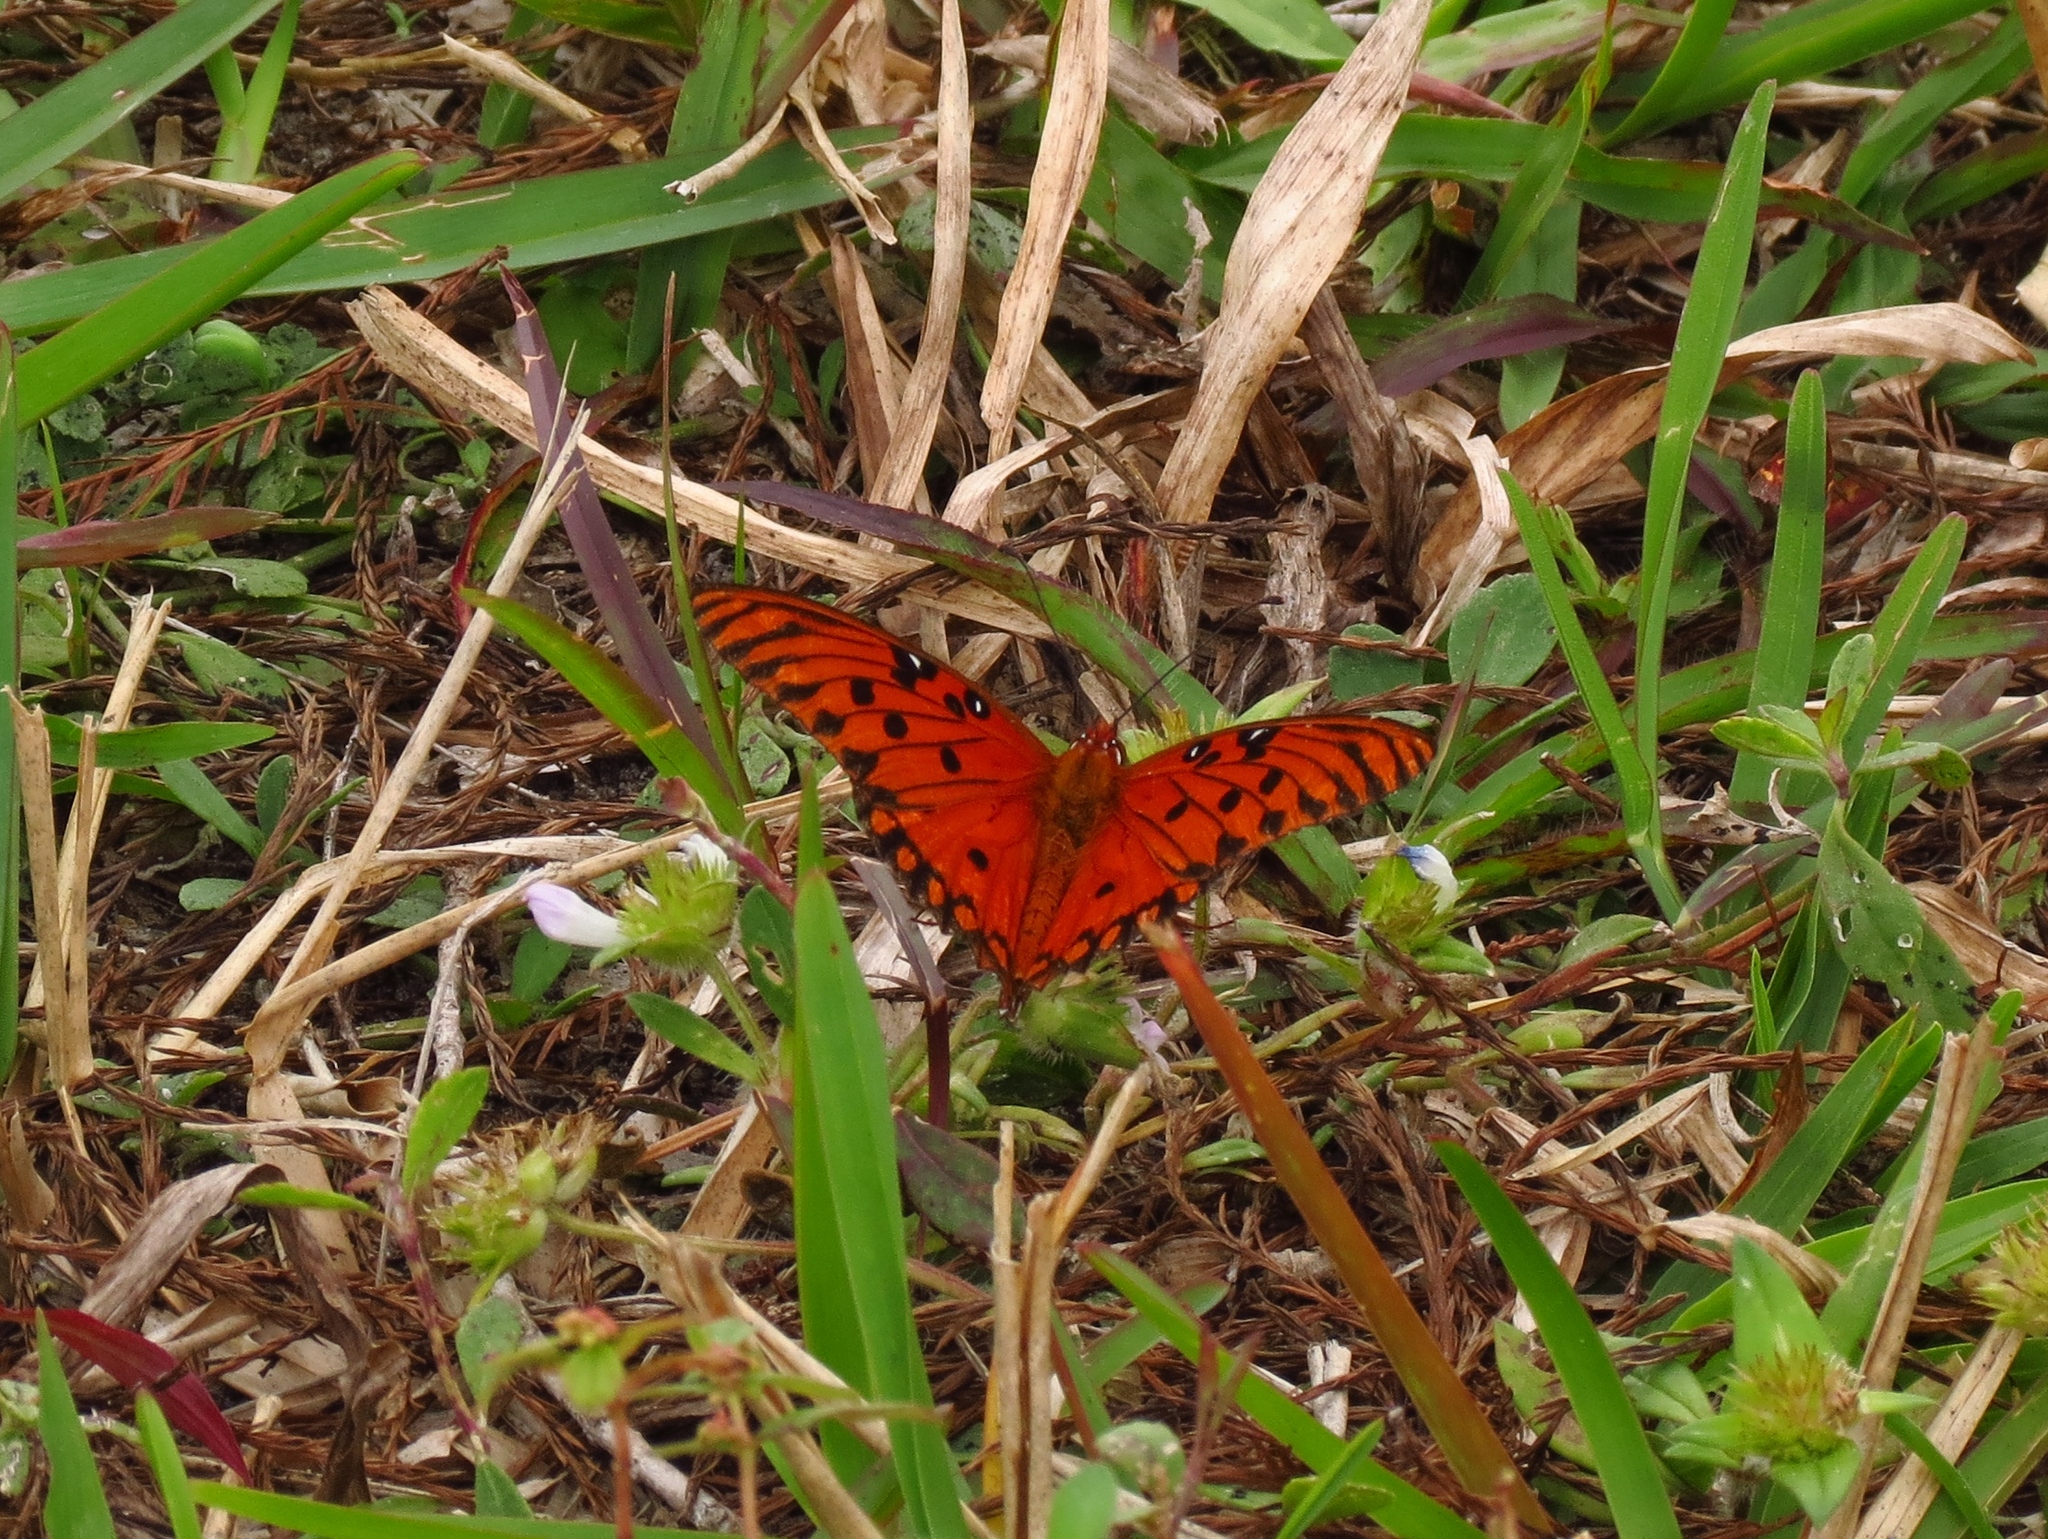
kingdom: Animalia
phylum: Arthropoda
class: Insecta
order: Lepidoptera
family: Nymphalidae
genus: Dione
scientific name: Dione vanillae
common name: Gulf fritillary
